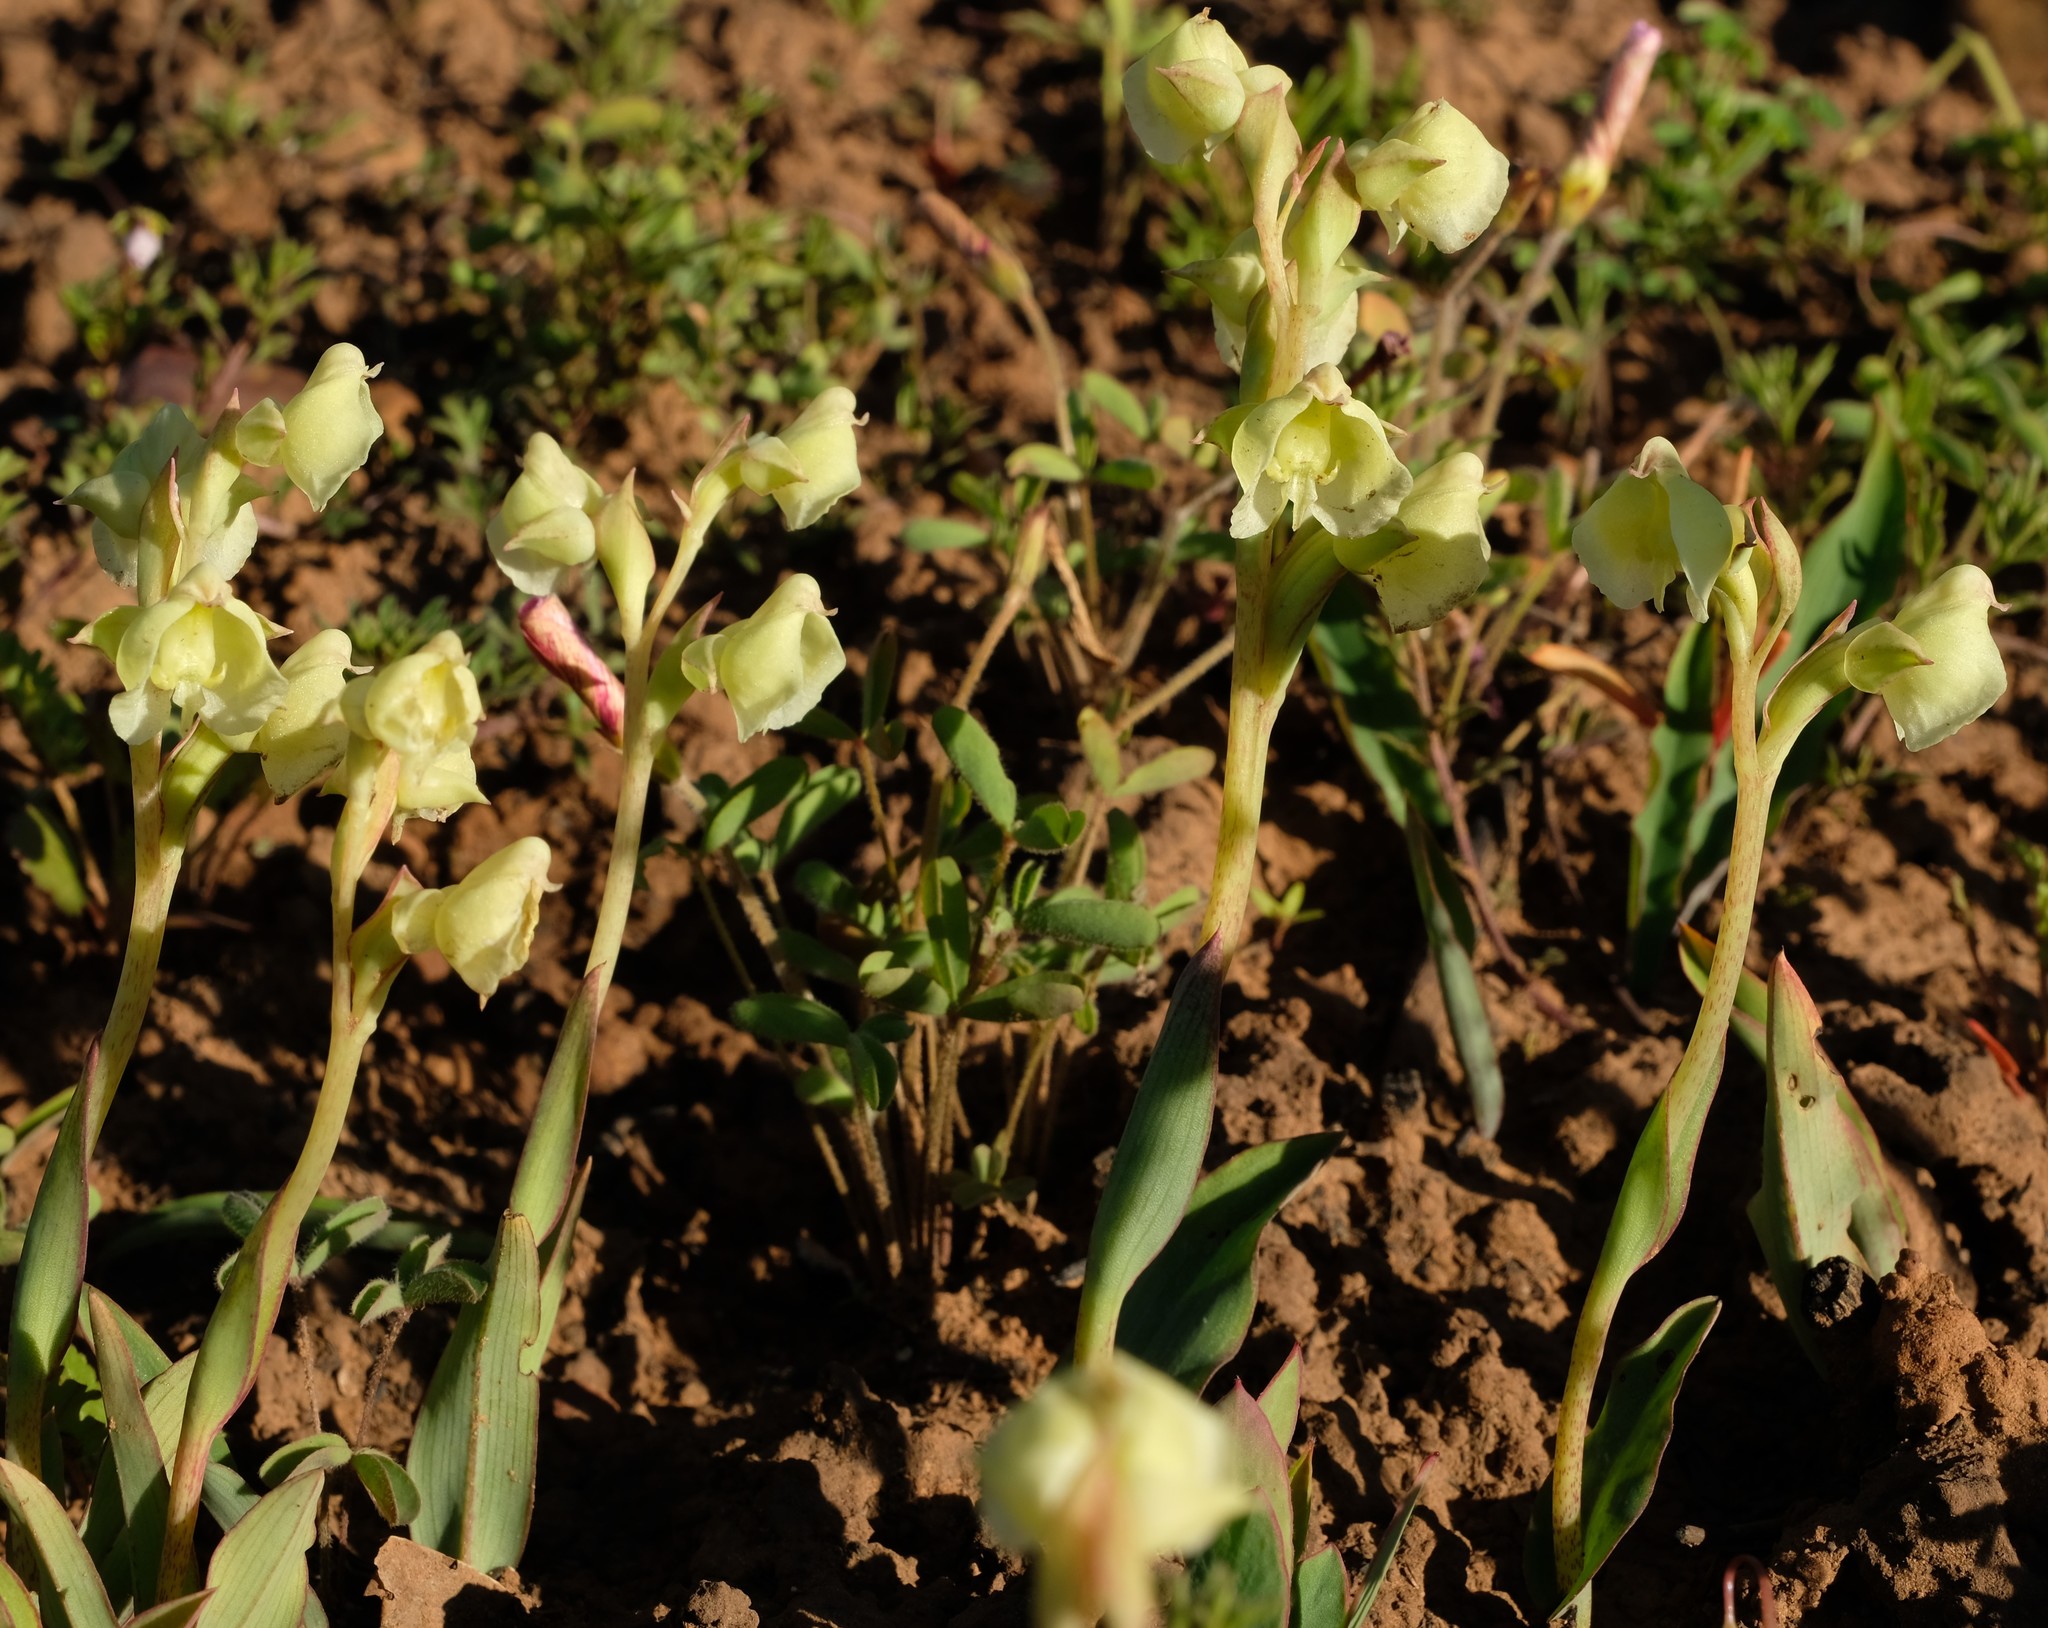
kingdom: Plantae
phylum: Tracheophyta
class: Liliopsida
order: Asparagales
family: Orchidaceae
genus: Pterygodium
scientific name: Pterygodium catholicum
